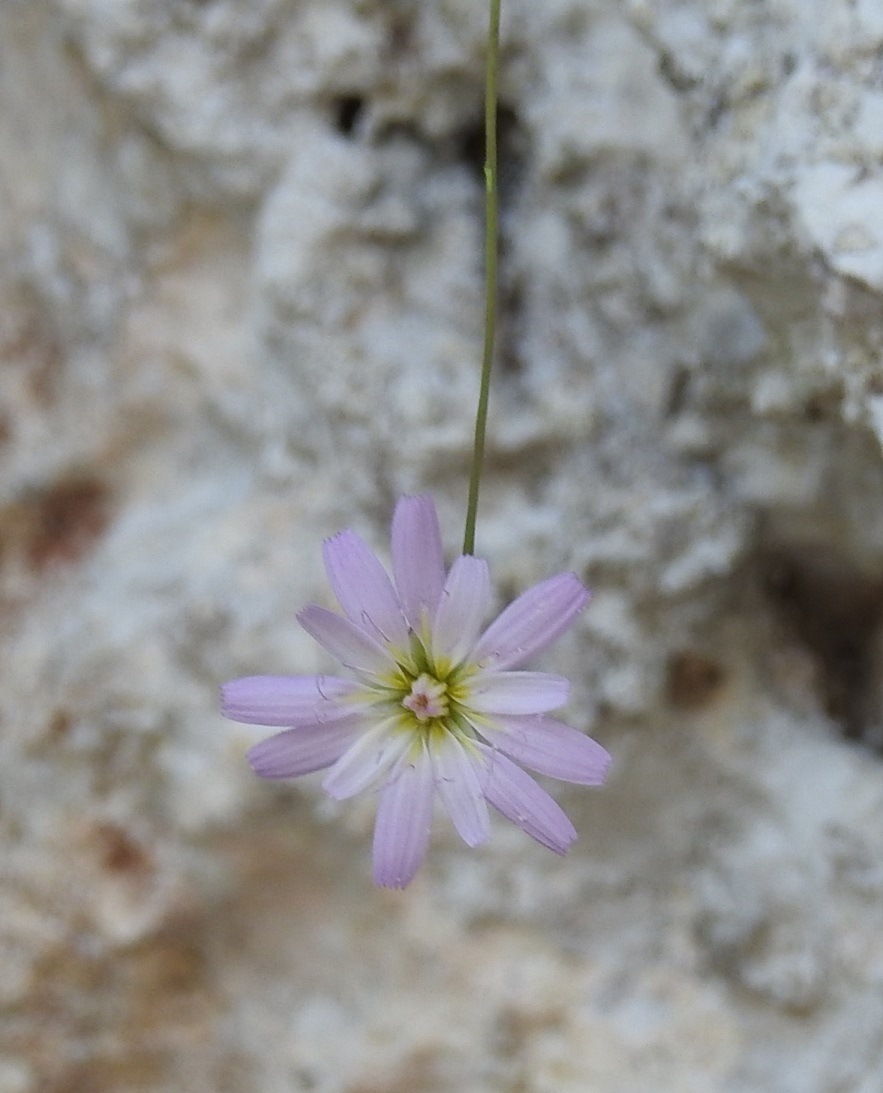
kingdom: Plantae
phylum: Tracheophyta
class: Magnoliopsida
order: Asterales
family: Asteraceae
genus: Pinaropappus
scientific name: Pinaropappus spathulatus
